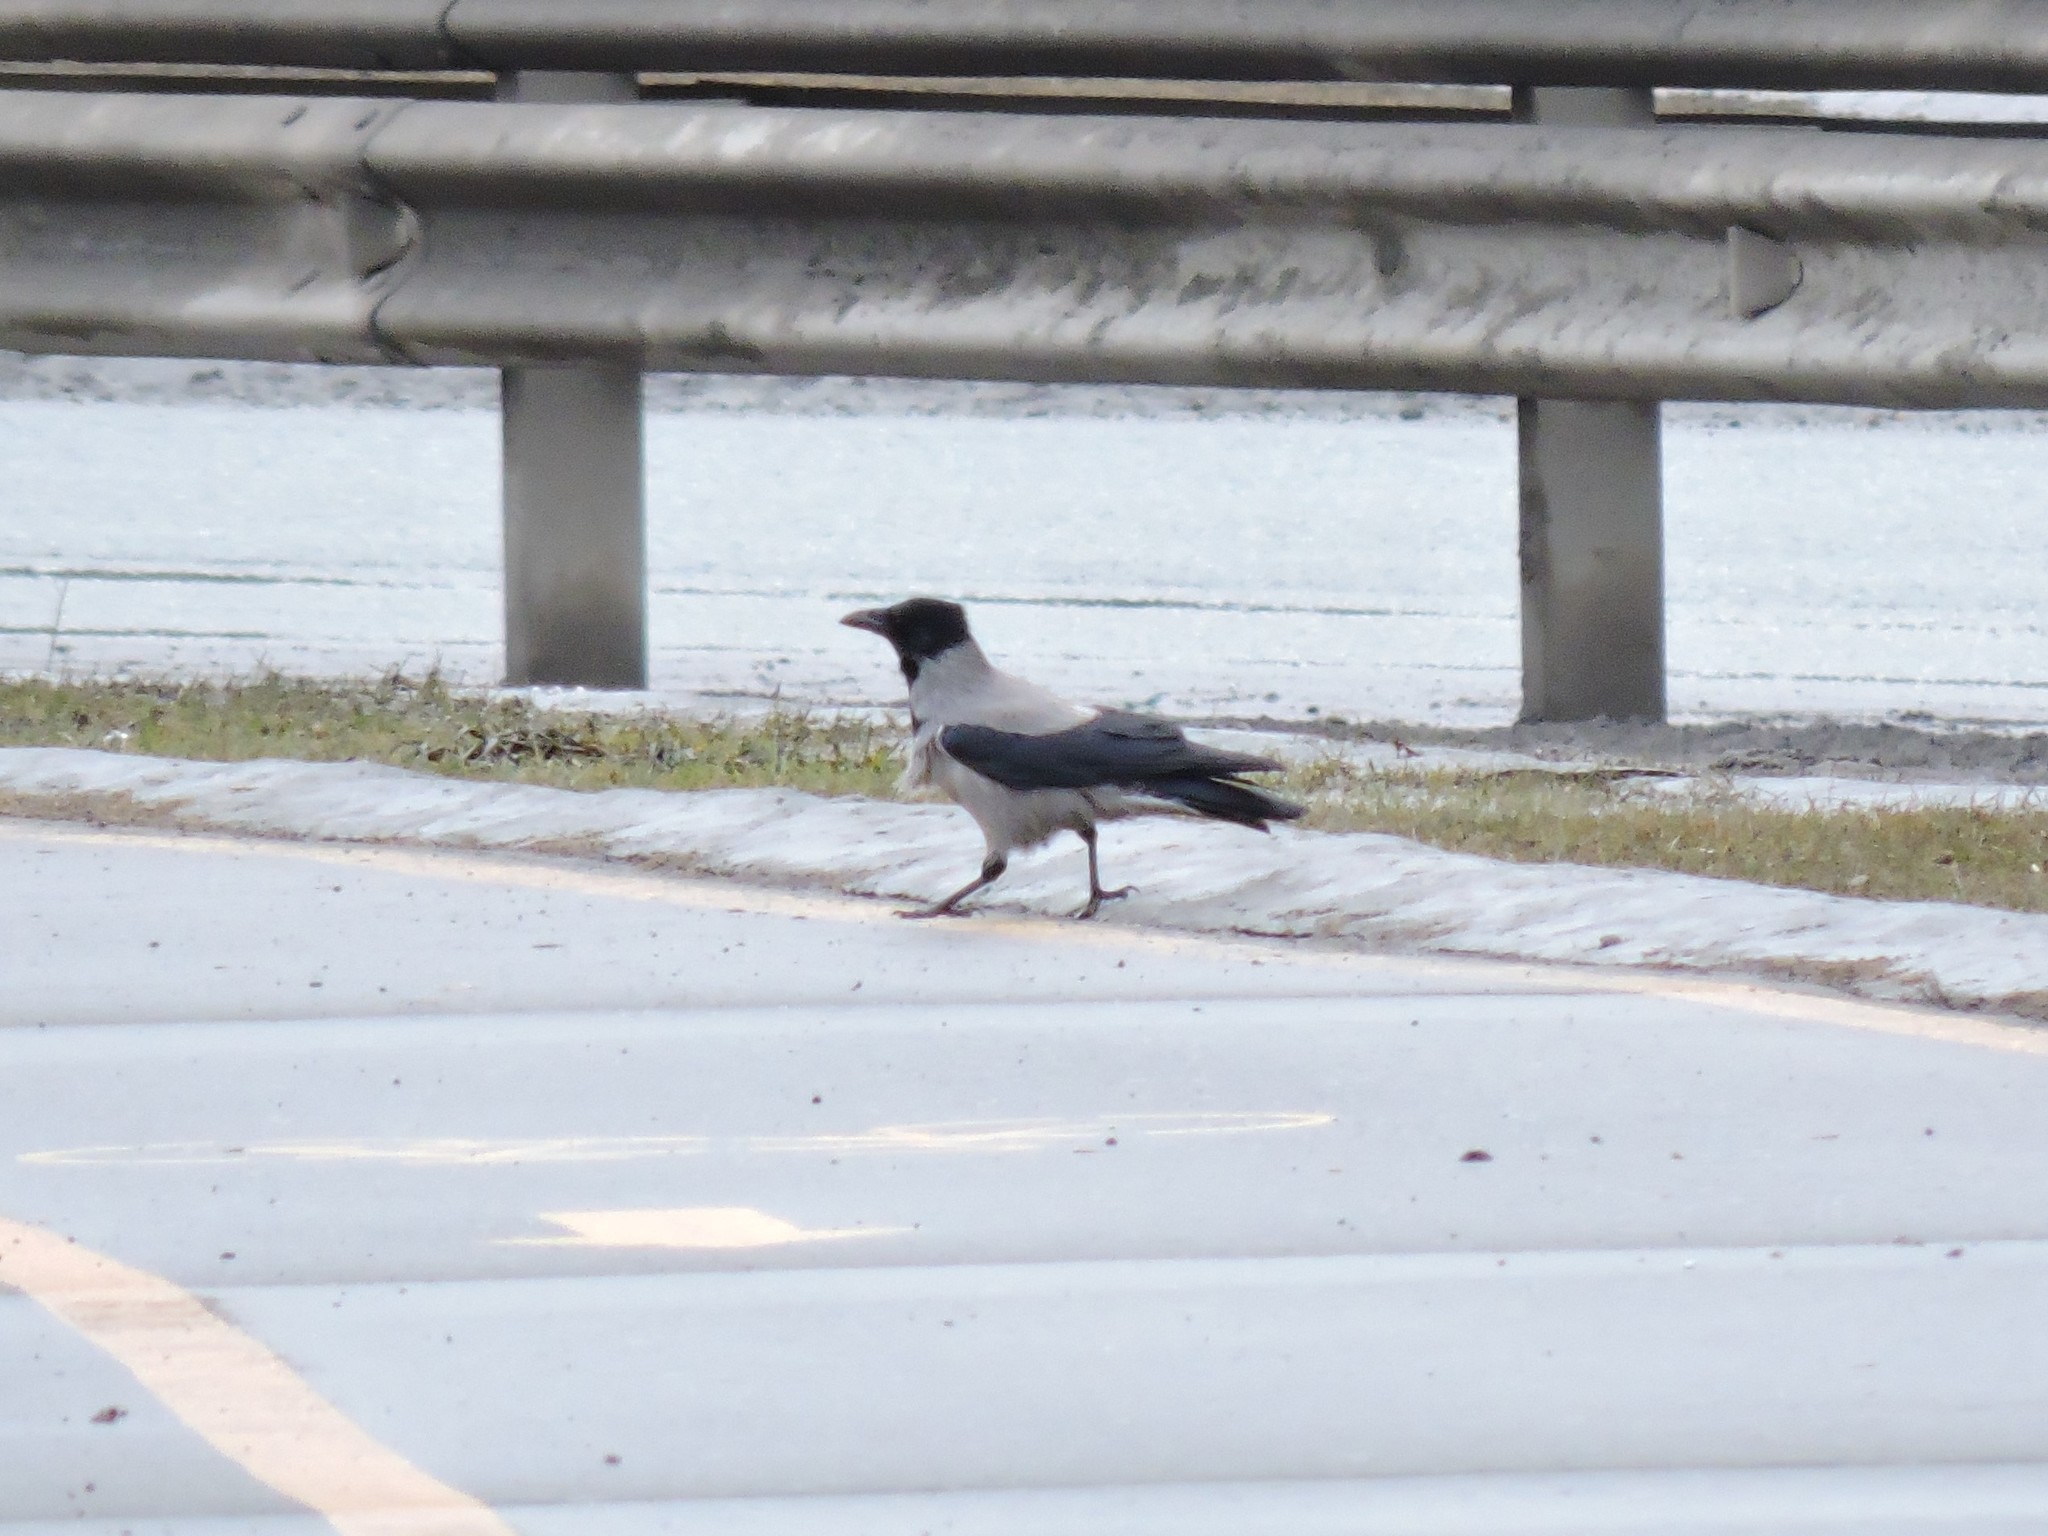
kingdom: Animalia
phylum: Chordata
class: Aves
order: Passeriformes
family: Corvidae
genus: Corvus
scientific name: Corvus cornix
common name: Hooded crow
